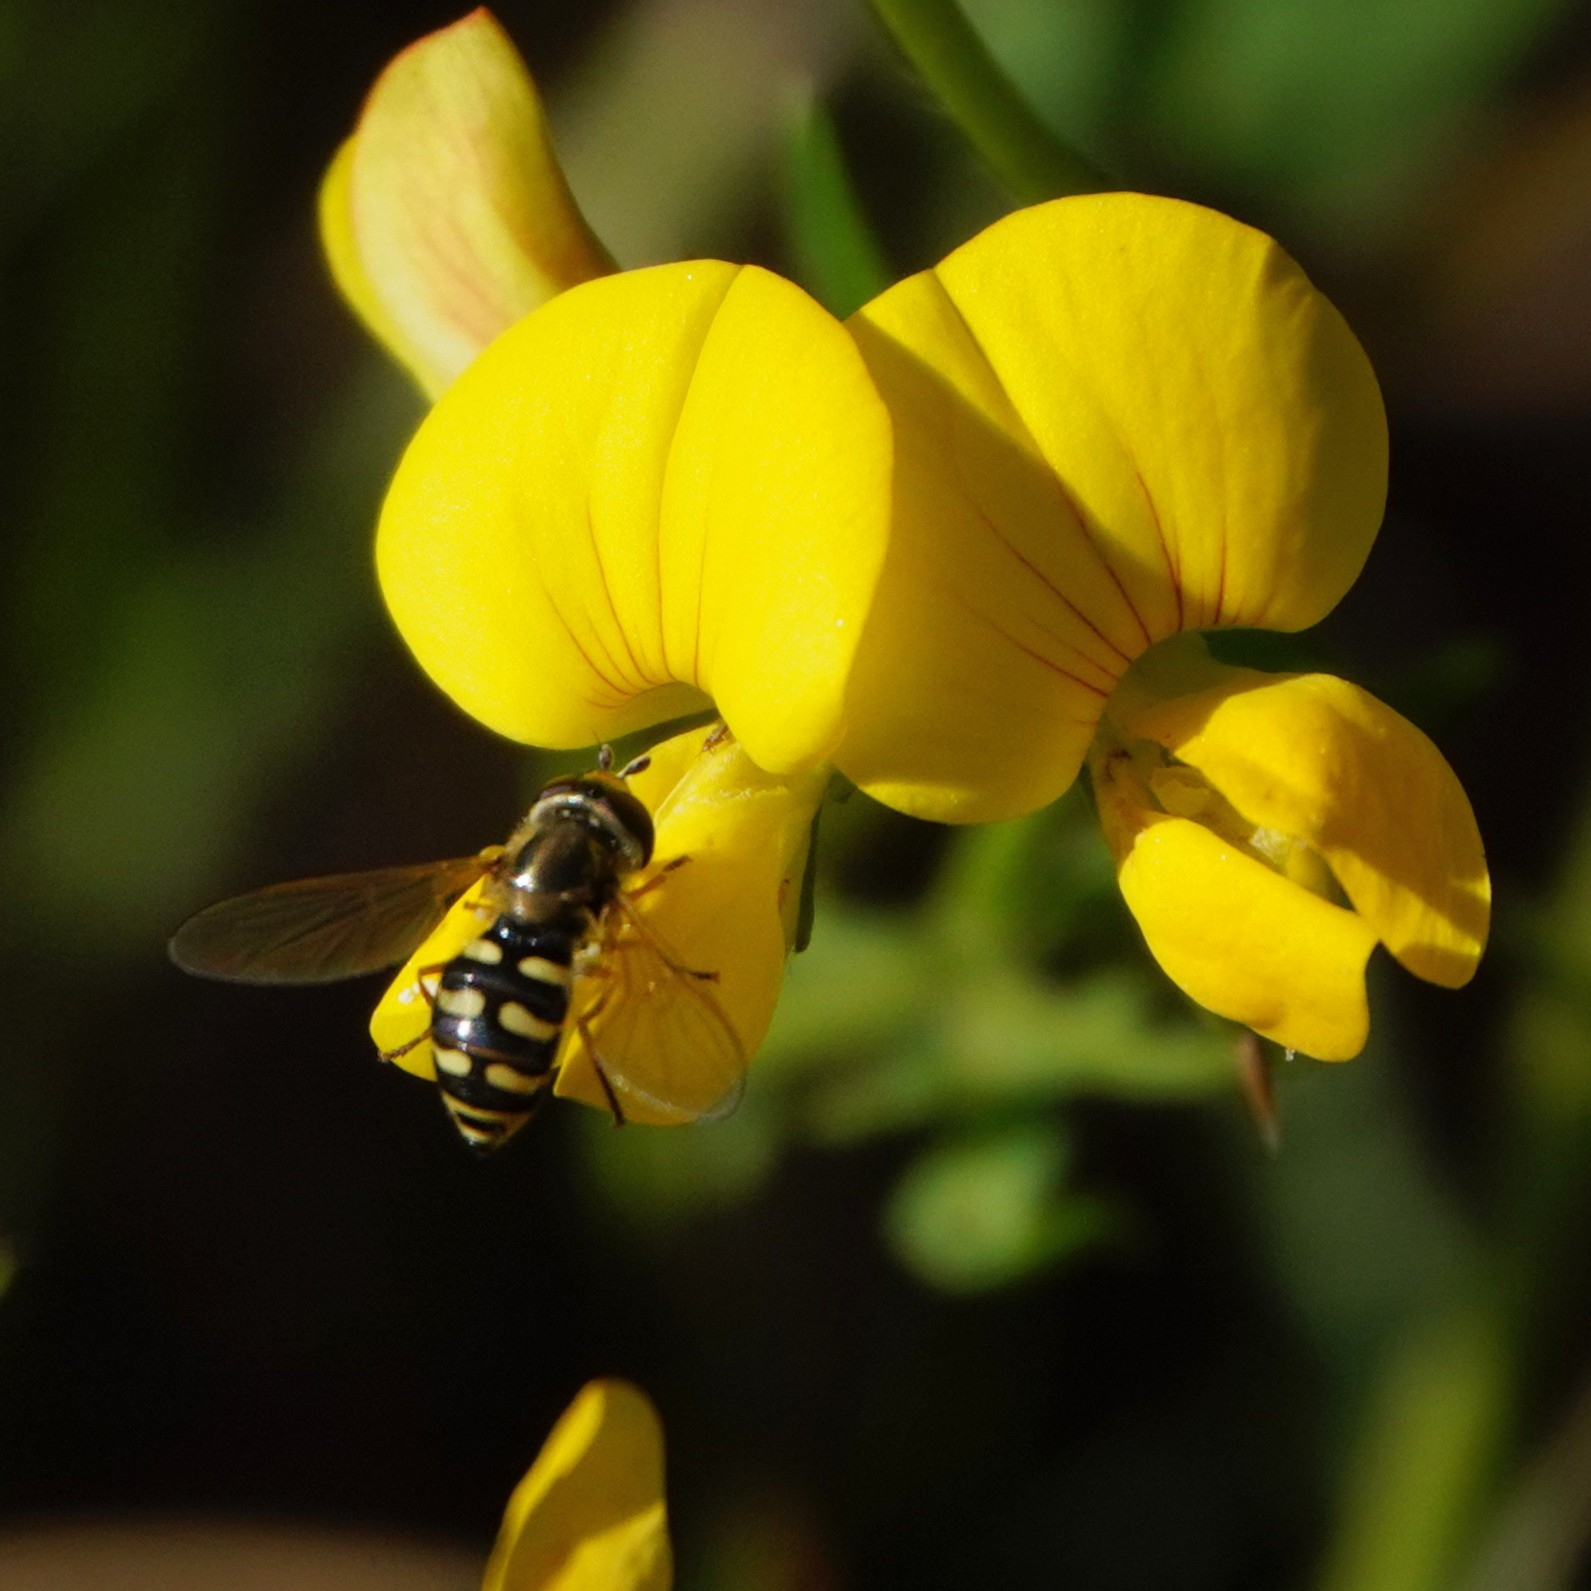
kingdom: Animalia
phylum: Arthropoda
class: Insecta
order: Diptera
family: Syrphidae
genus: Eupeodes
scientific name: Eupeodes corollae
